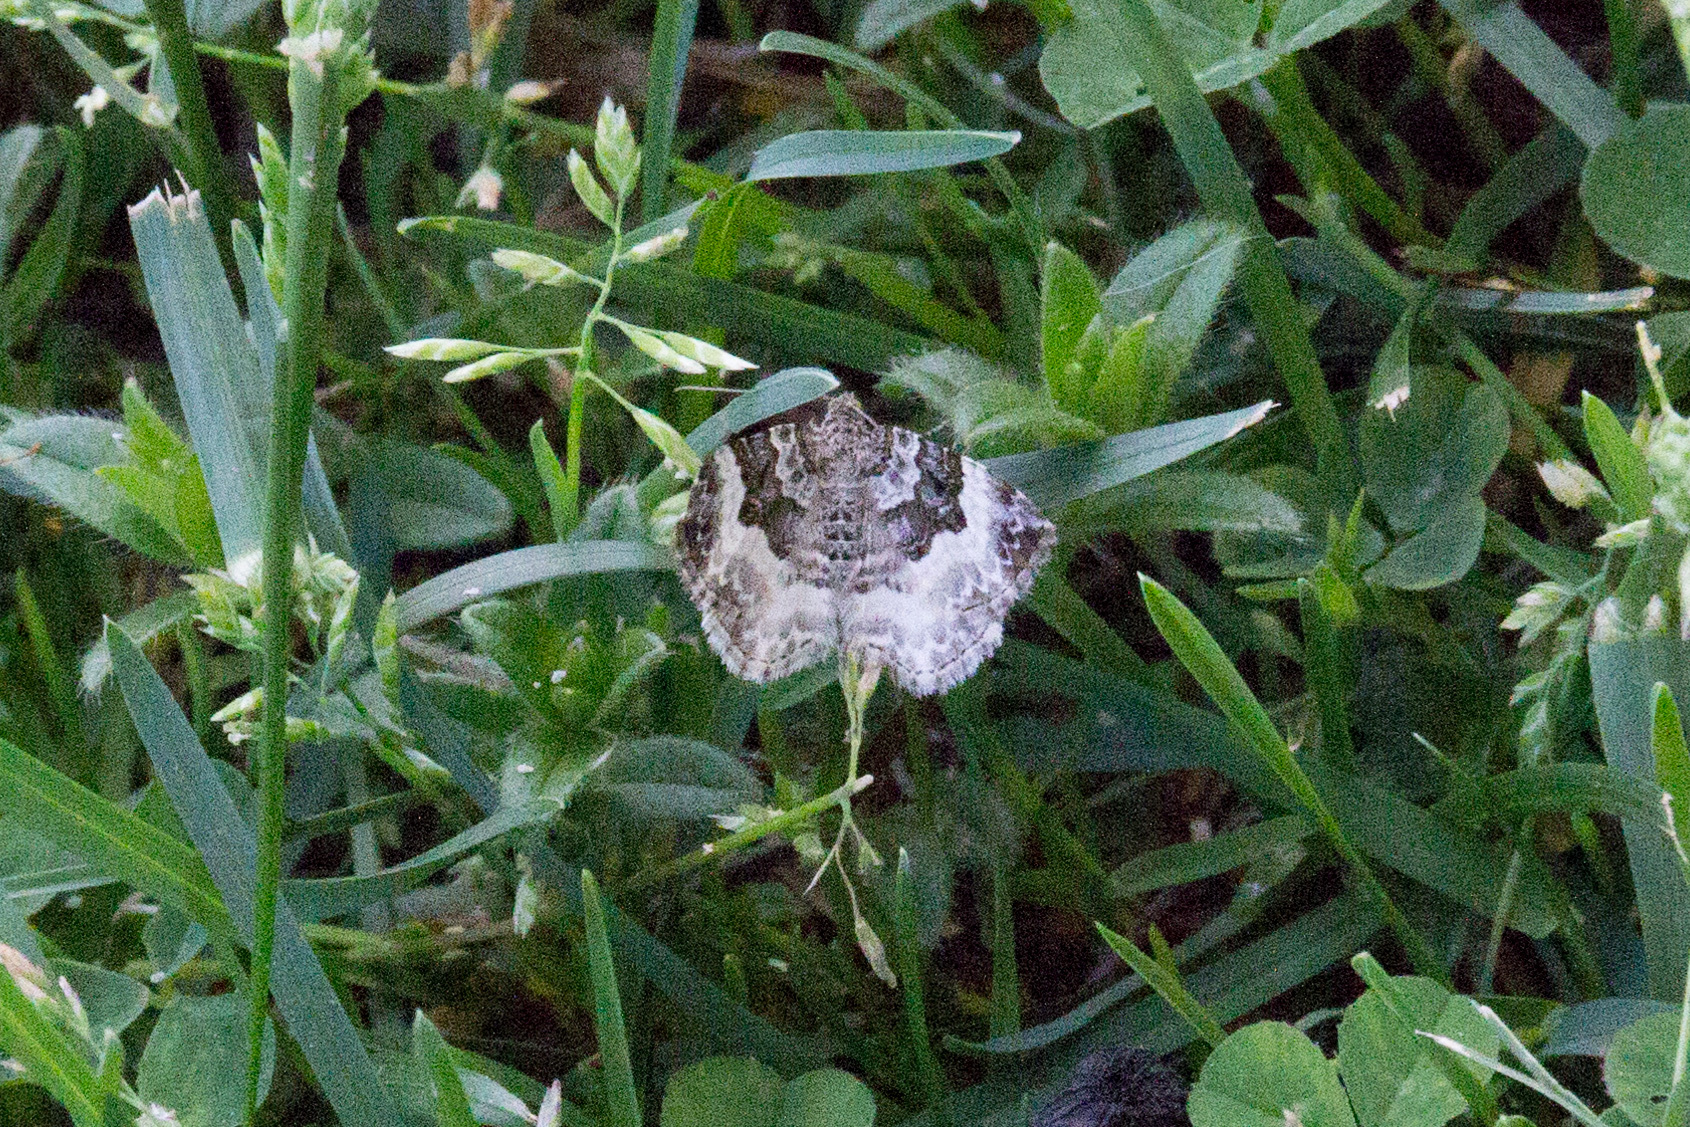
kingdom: Animalia
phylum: Arthropoda
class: Insecta
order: Lepidoptera
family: Geometridae
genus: Epirrhoe
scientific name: Epirrhoe alternata
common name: Common carpet
